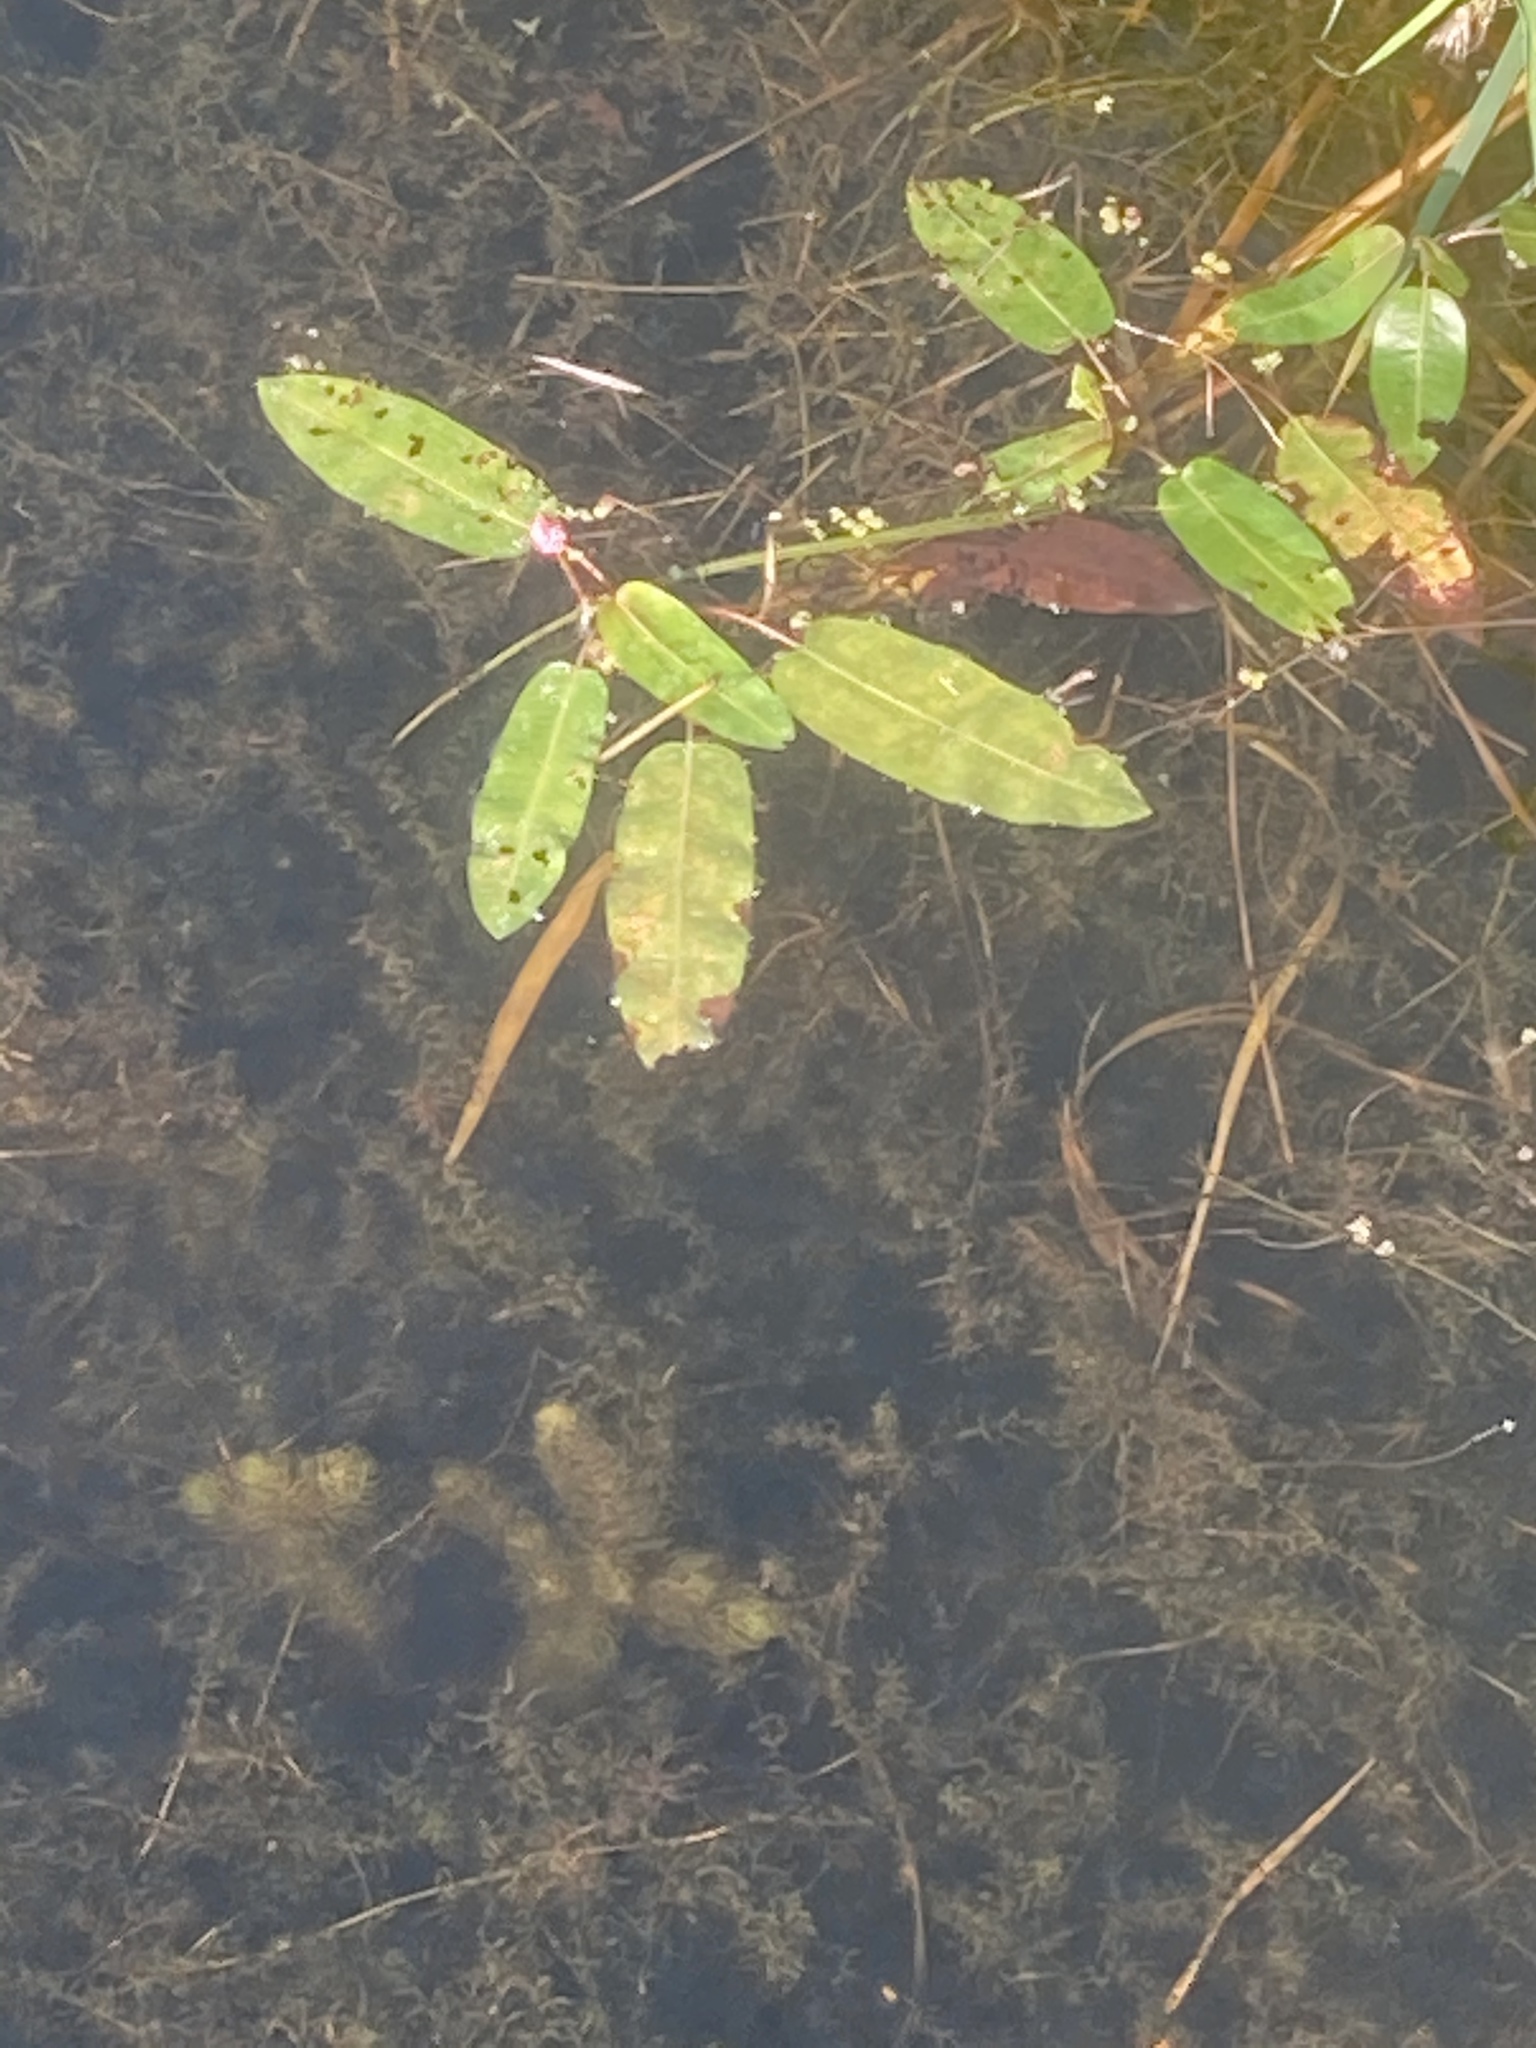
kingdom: Plantae
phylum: Tracheophyta
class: Magnoliopsida
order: Caryophyllales
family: Polygonaceae
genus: Persicaria
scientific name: Persicaria amphibia
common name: Amphibious bistort
